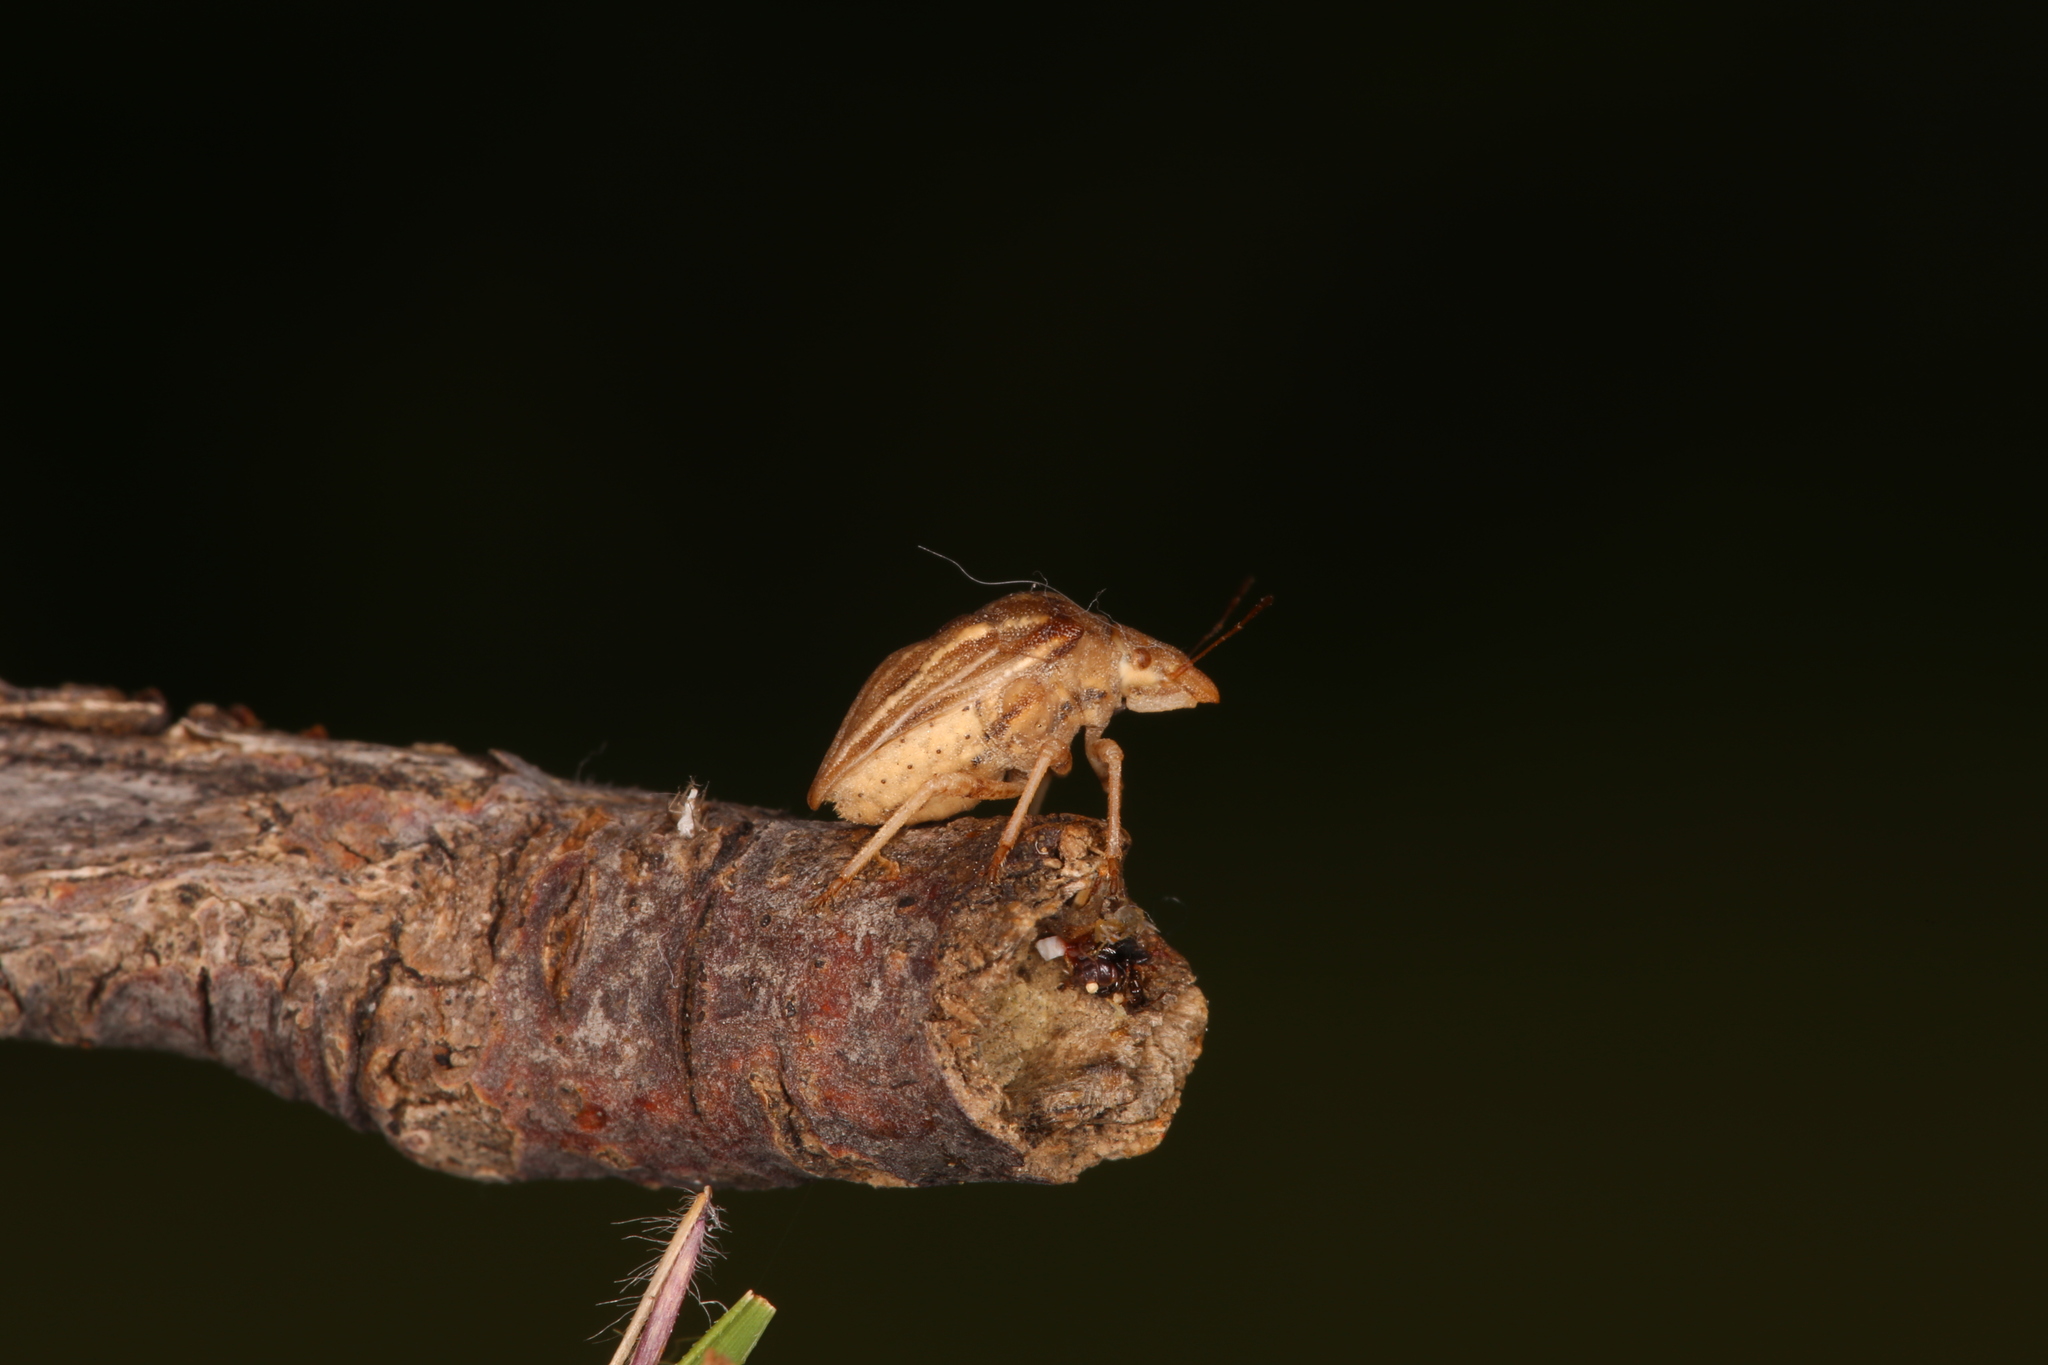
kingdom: Animalia
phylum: Arthropoda
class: Insecta
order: Hemiptera
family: Pentatomidae
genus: Ancyrosoma
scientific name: Ancyrosoma leucogrammes
